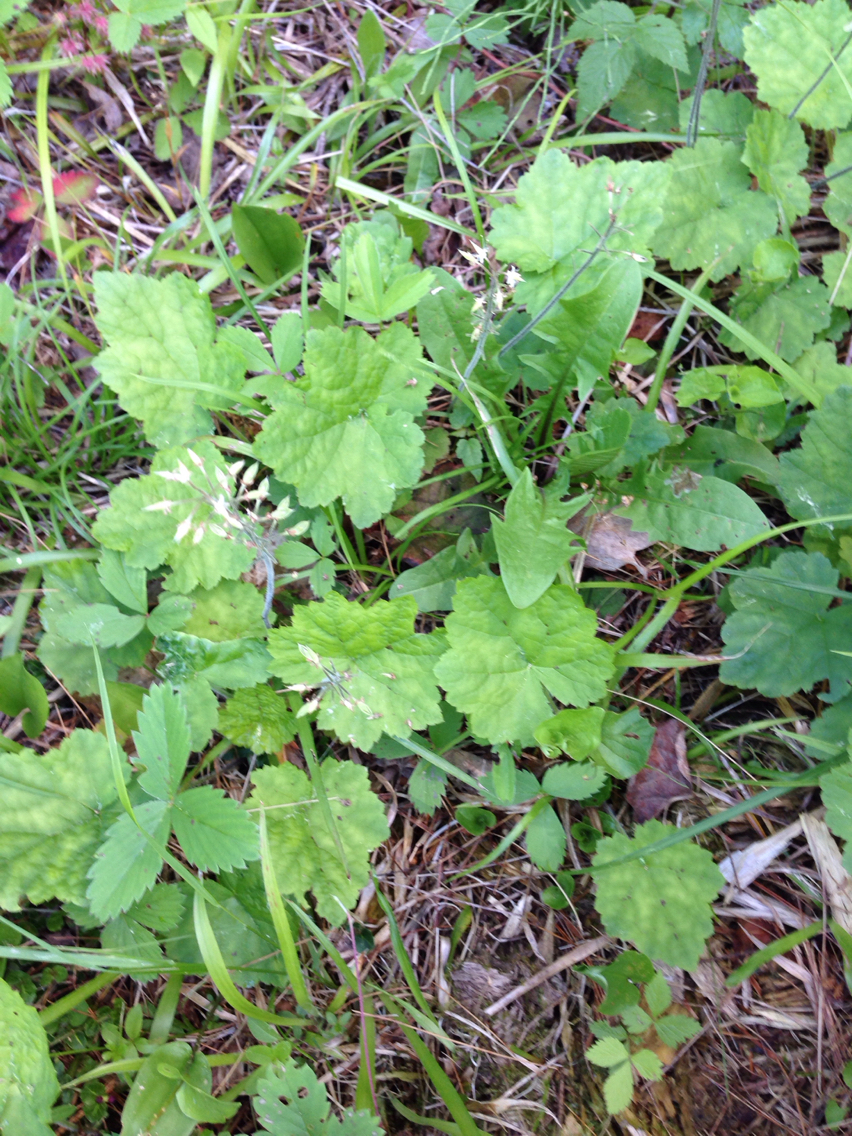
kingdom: Plantae
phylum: Tracheophyta
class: Magnoliopsida
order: Saxifragales
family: Saxifragaceae
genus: Tiarella
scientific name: Tiarella stolonifera
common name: Stoloniferous foamflower
